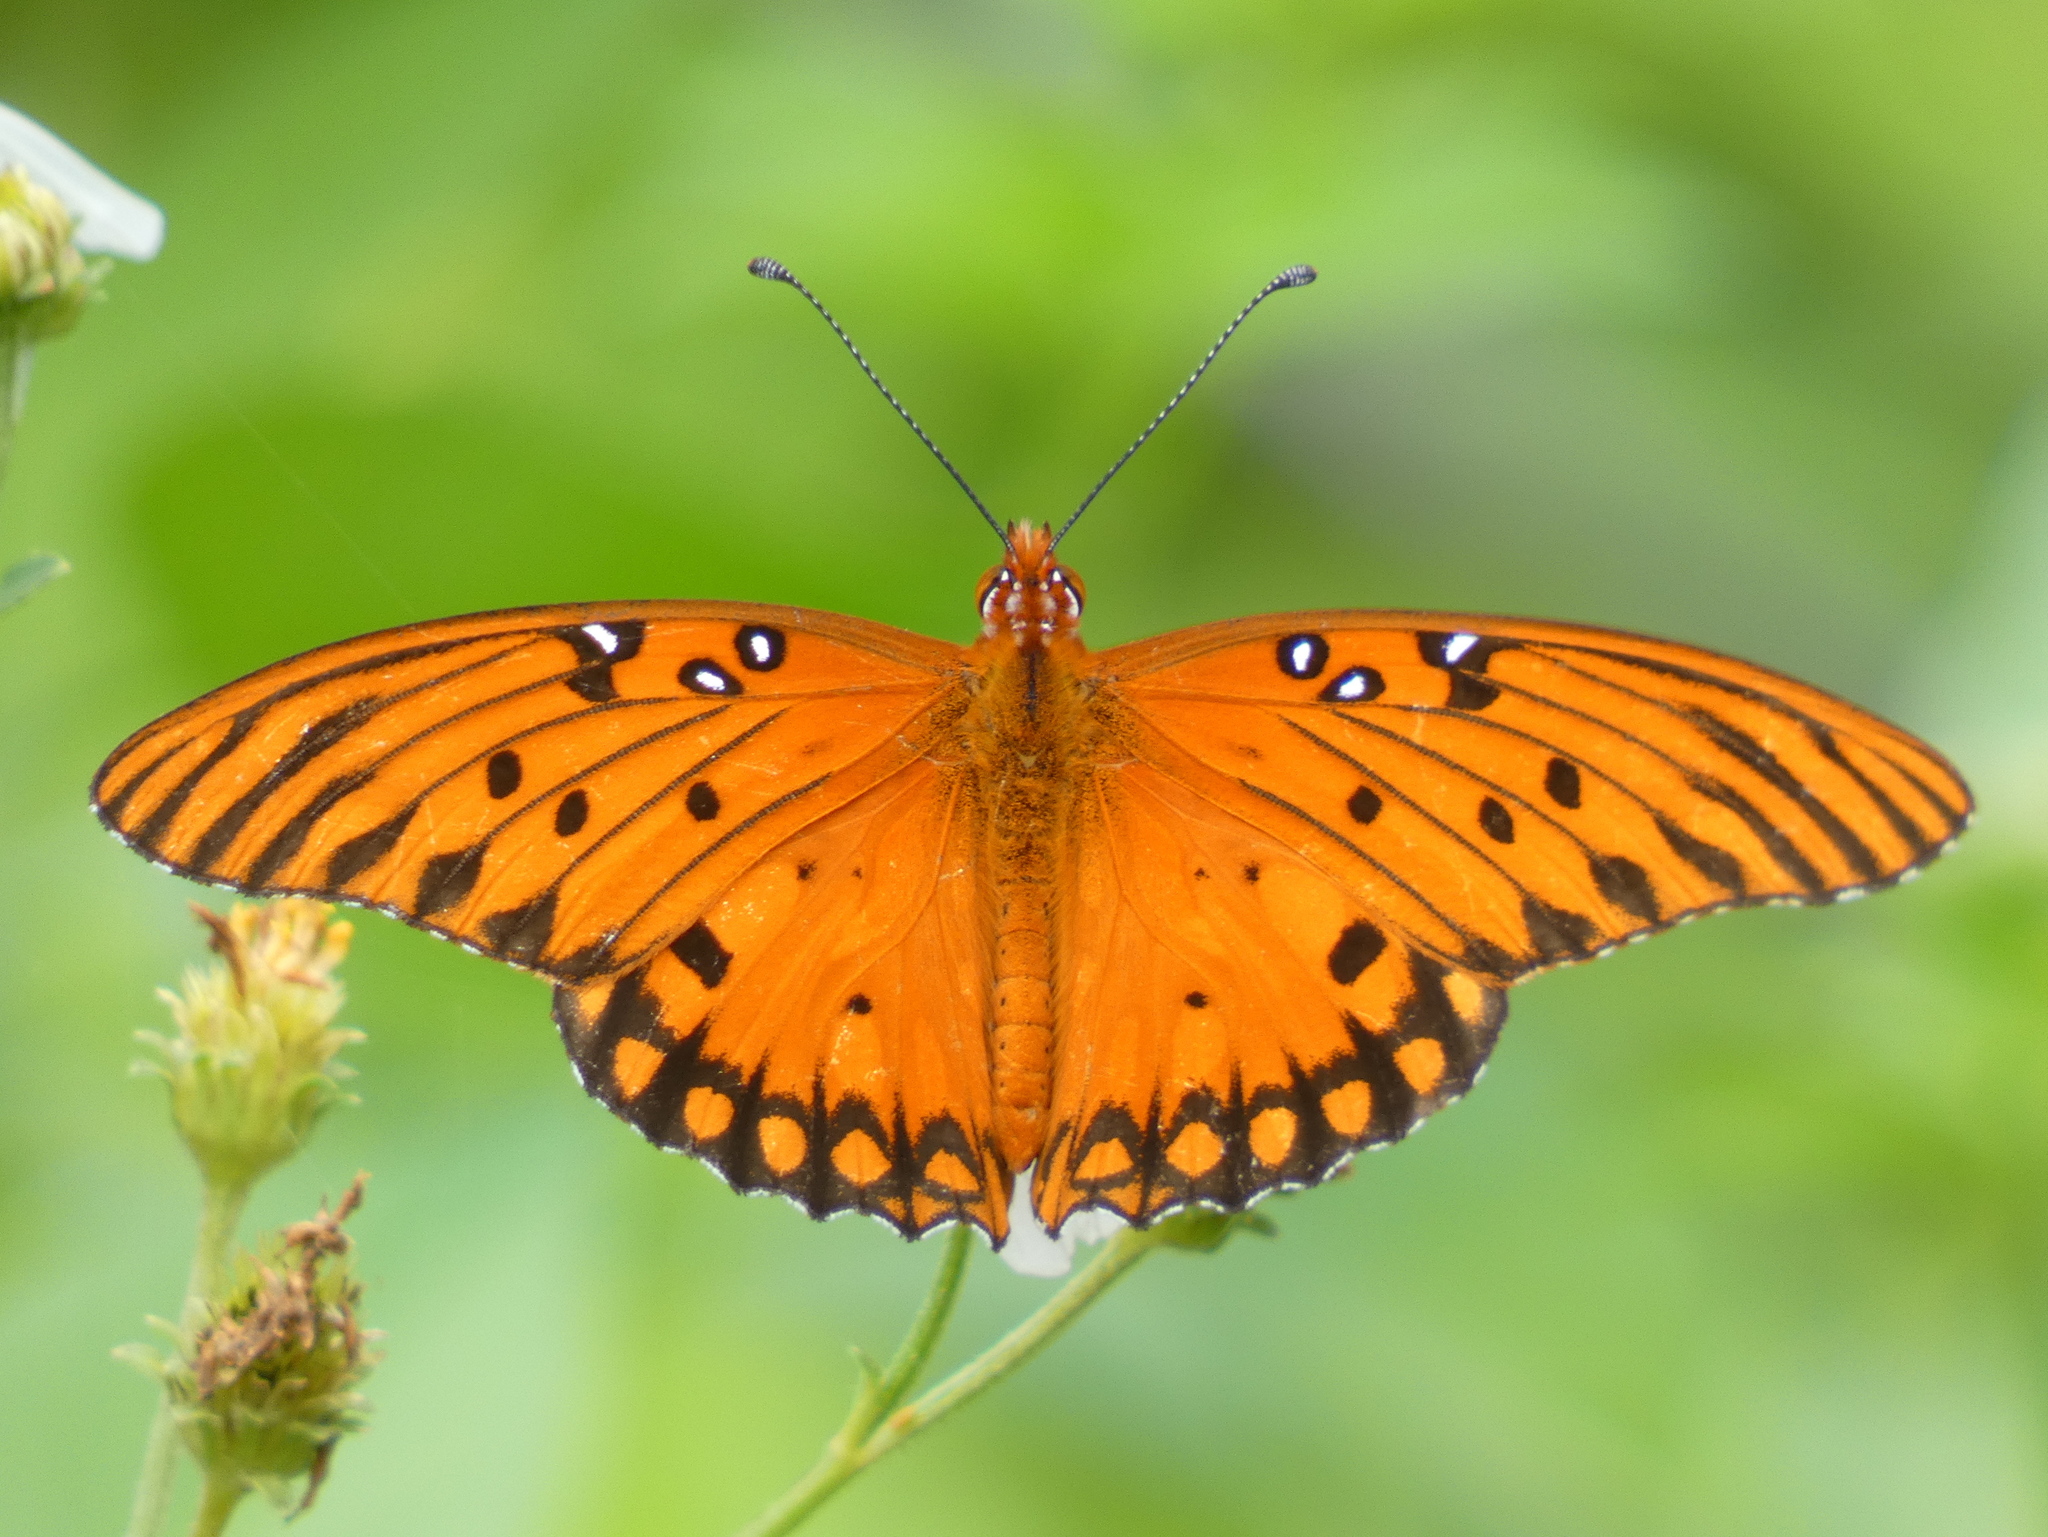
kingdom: Animalia
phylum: Arthropoda
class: Insecta
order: Lepidoptera
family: Nymphalidae
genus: Dione
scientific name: Dione vanillae
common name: Gulf fritillary
